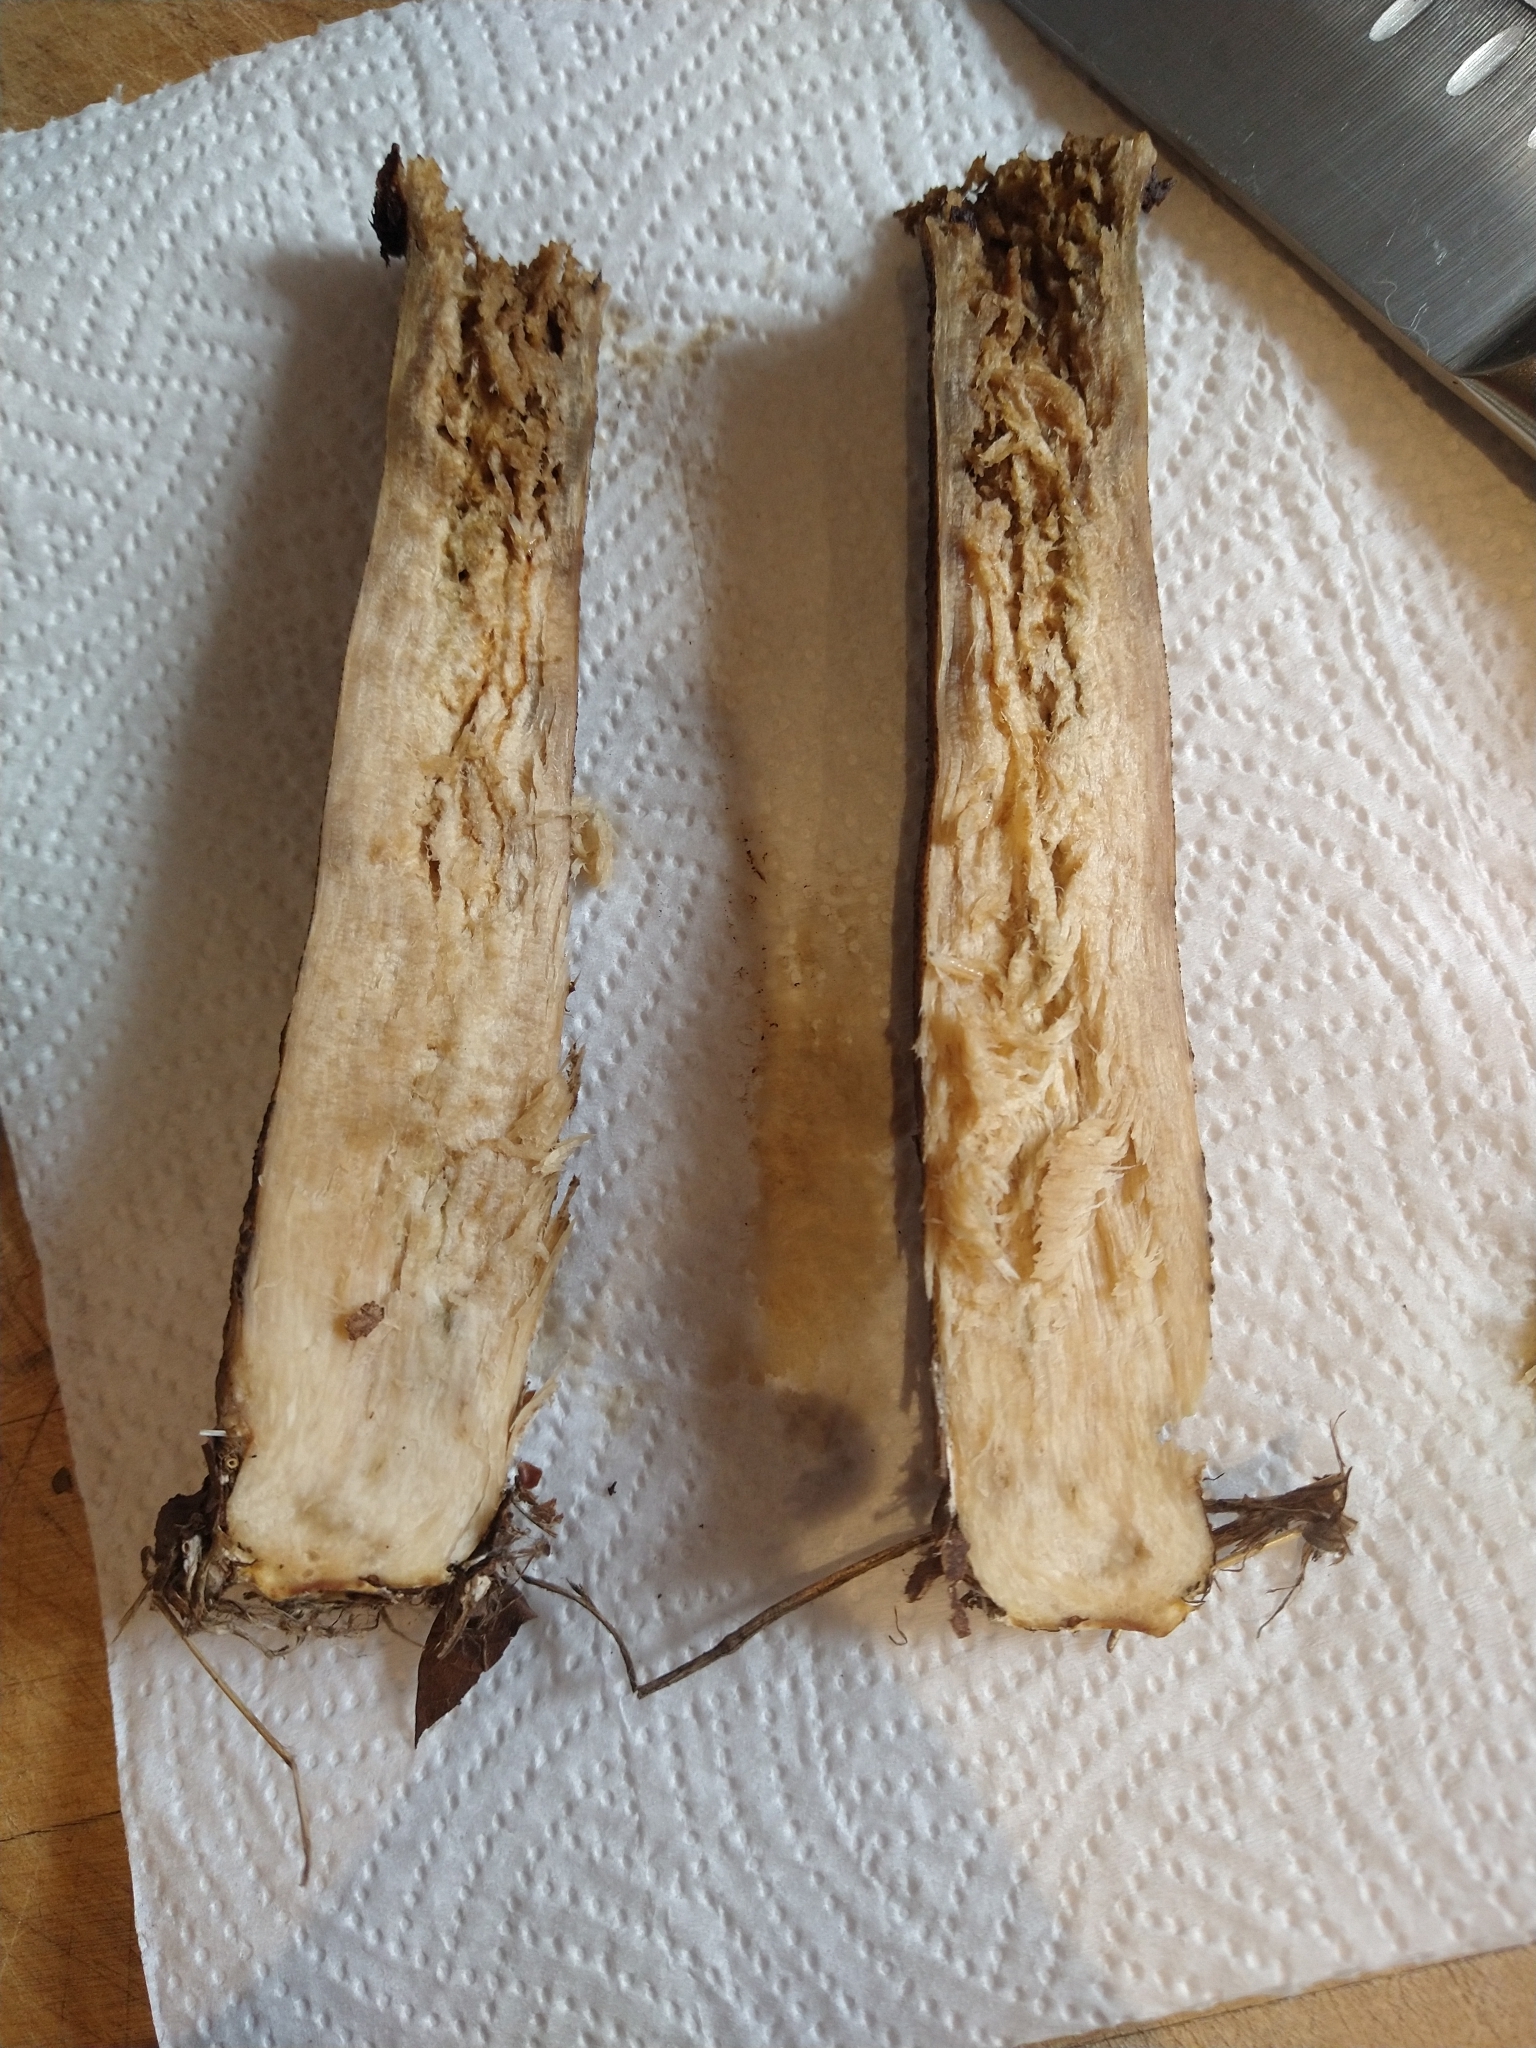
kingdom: Fungi
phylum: Basidiomycota
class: Agaricomycetes
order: Boletales
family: Boletaceae
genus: Leccinum
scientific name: Leccinum scabrum
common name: Blushing bolete
